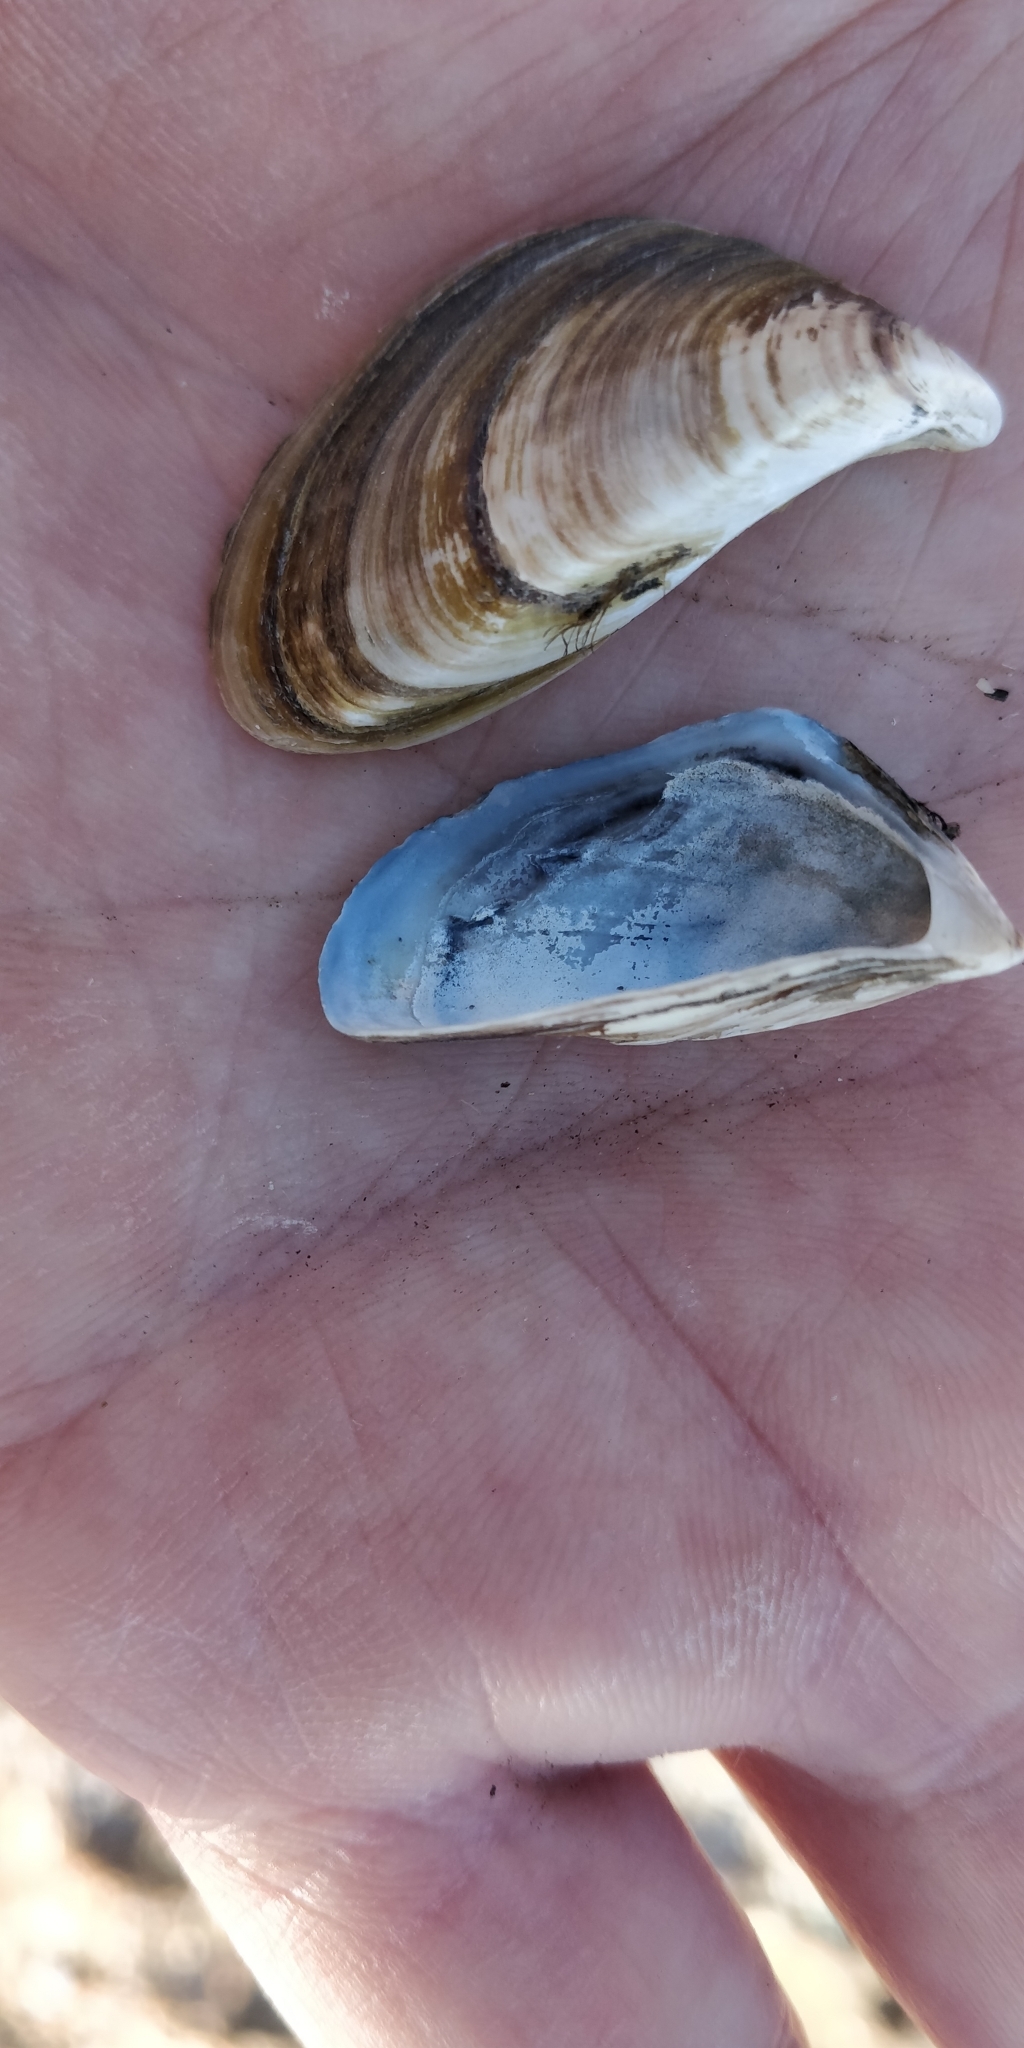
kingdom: Animalia
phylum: Mollusca
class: Bivalvia
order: Myida
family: Dreissenidae
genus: Dreissena
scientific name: Dreissena polymorpha
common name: Zebra mussel
